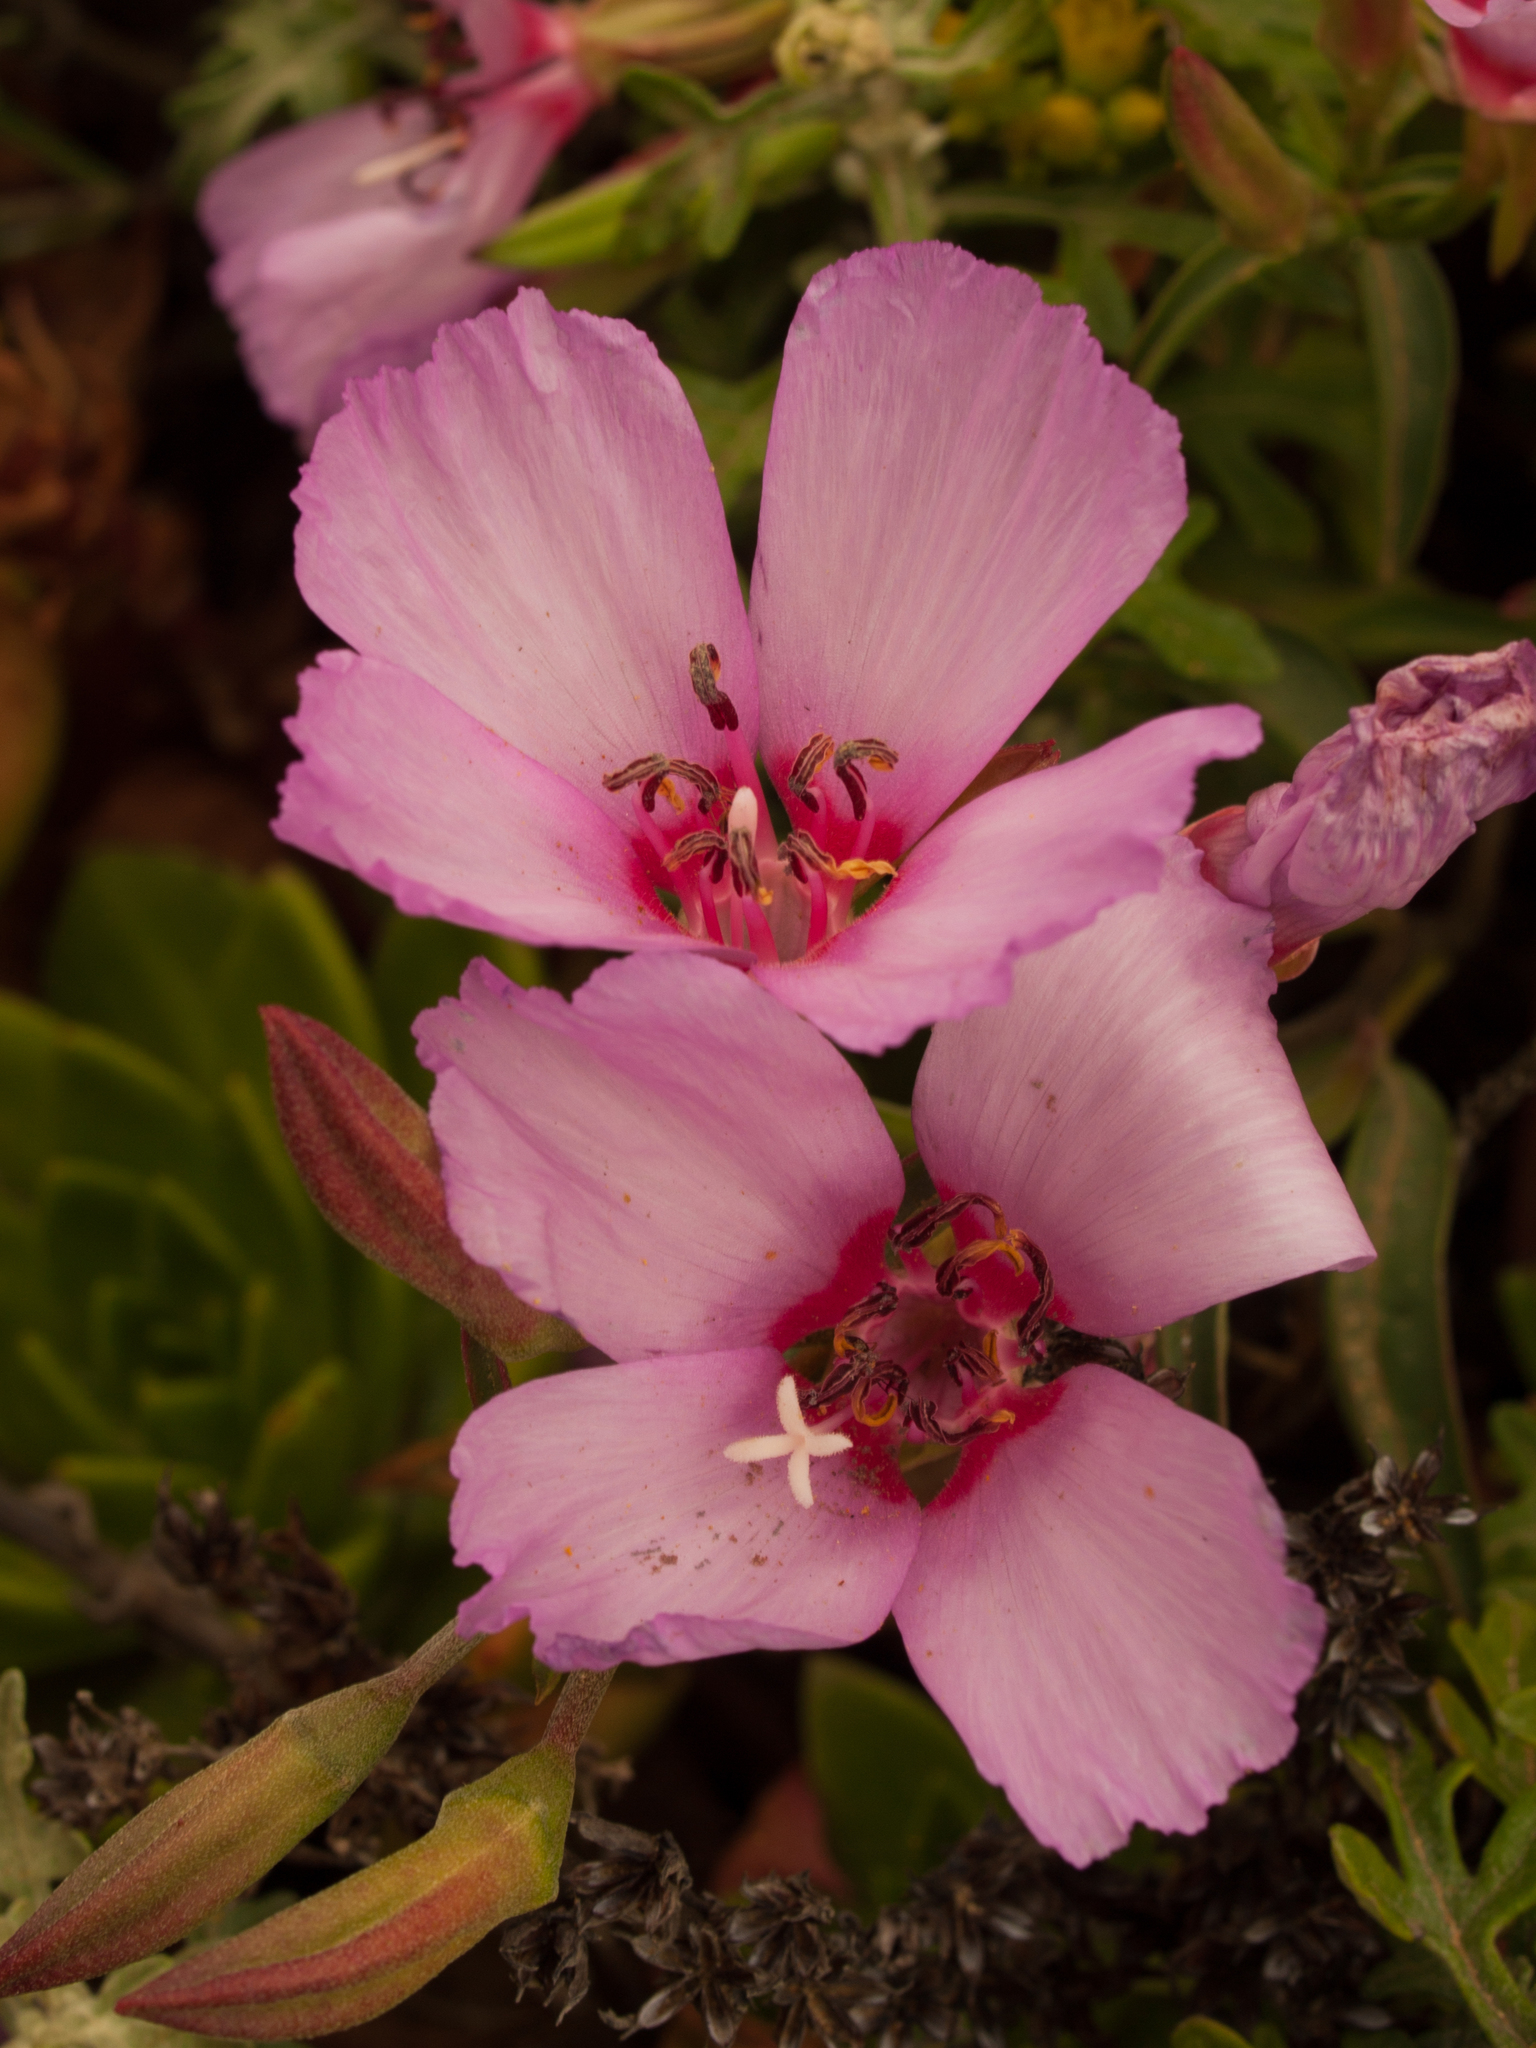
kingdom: Plantae
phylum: Tracheophyta
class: Magnoliopsida
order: Myrtales
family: Onagraceae
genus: Clarkia
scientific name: Clarkia rubicunda
